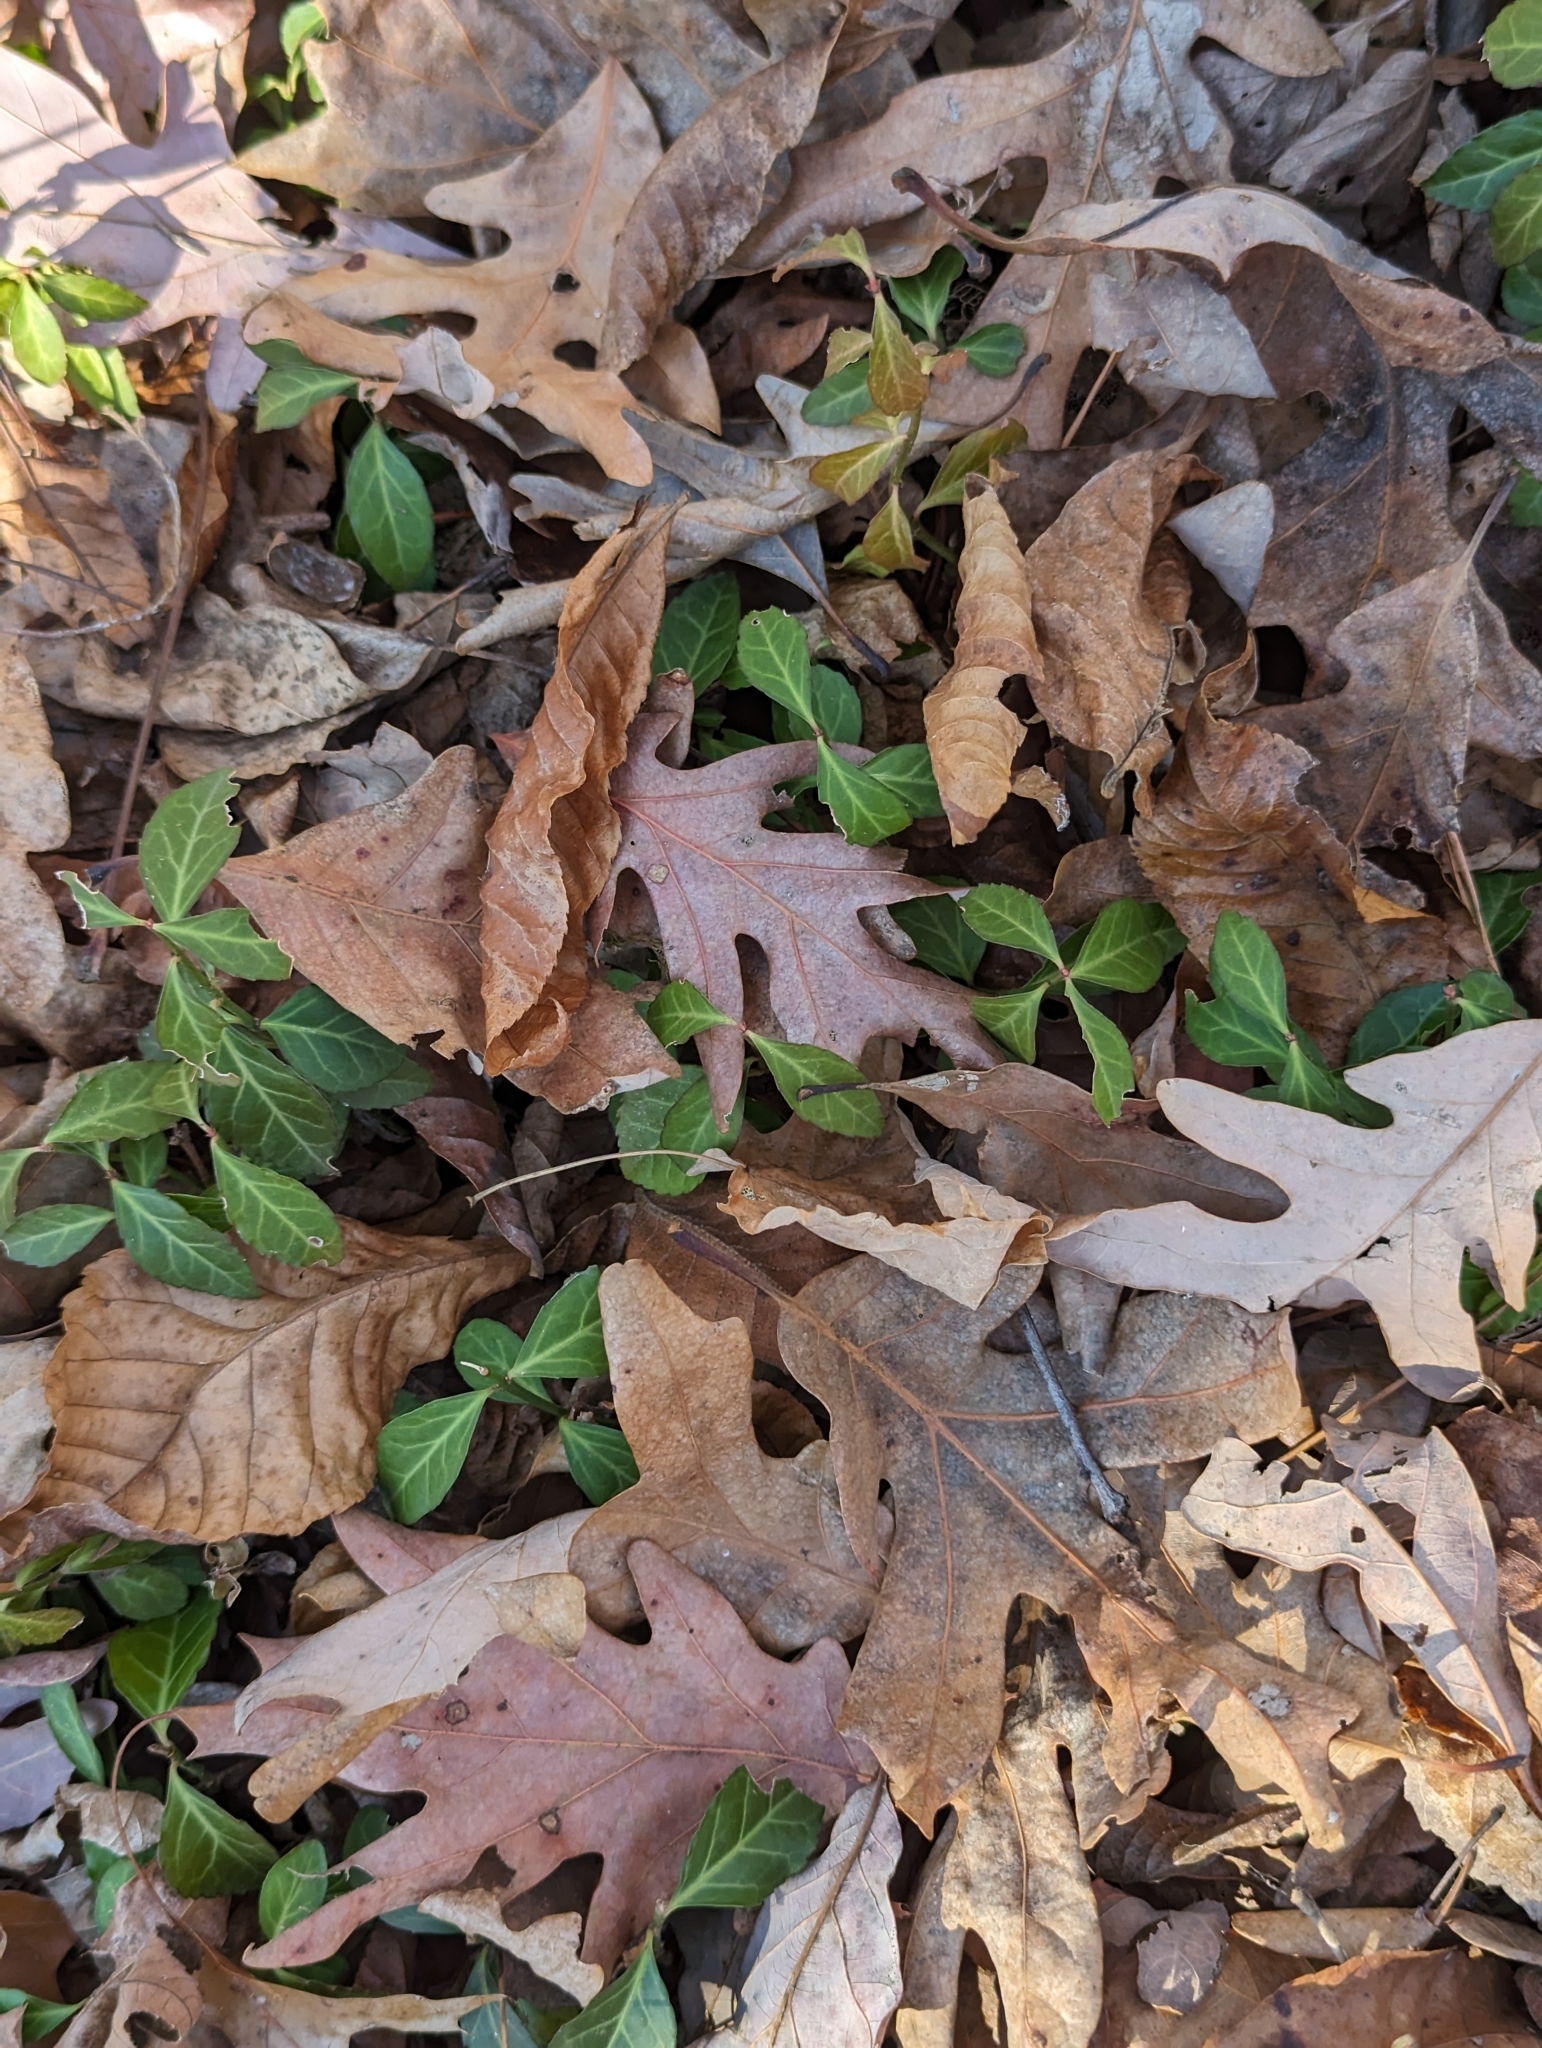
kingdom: Plantae
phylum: Tracheophyta
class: Magnoliopsida
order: Celastrales
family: Celastraceae
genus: Euonymus
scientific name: Euonymus fortunei
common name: Climbing euonymus
